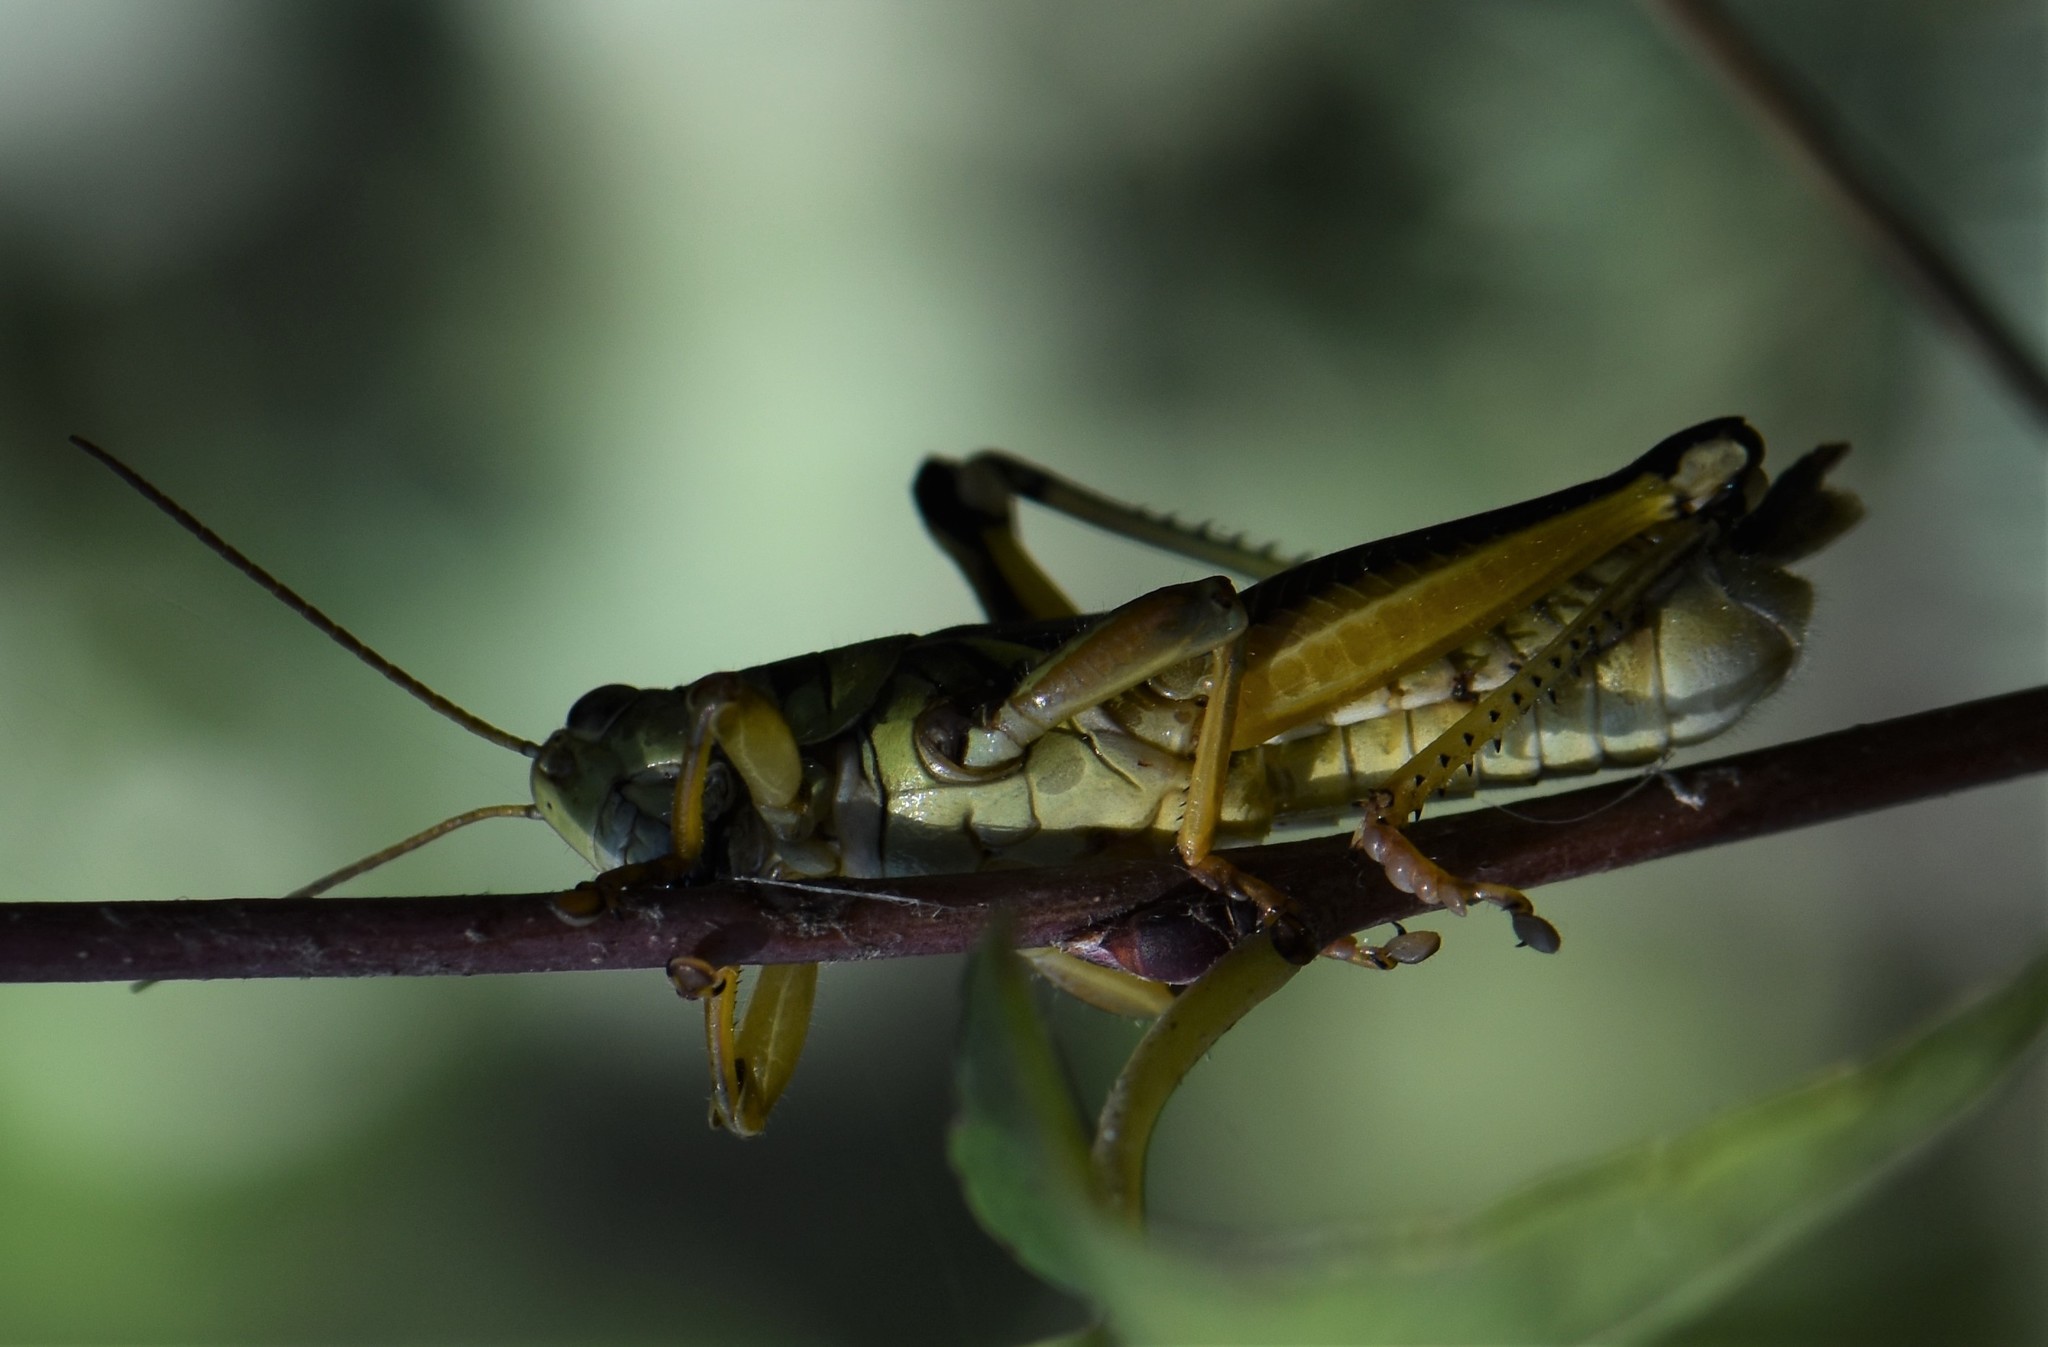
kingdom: Animalia
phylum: Arthropoda
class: Insecta
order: Orthoptera
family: Acrididae
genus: Melanoplus
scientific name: Melanoplus bivittatus
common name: Two-striped grasshopper
